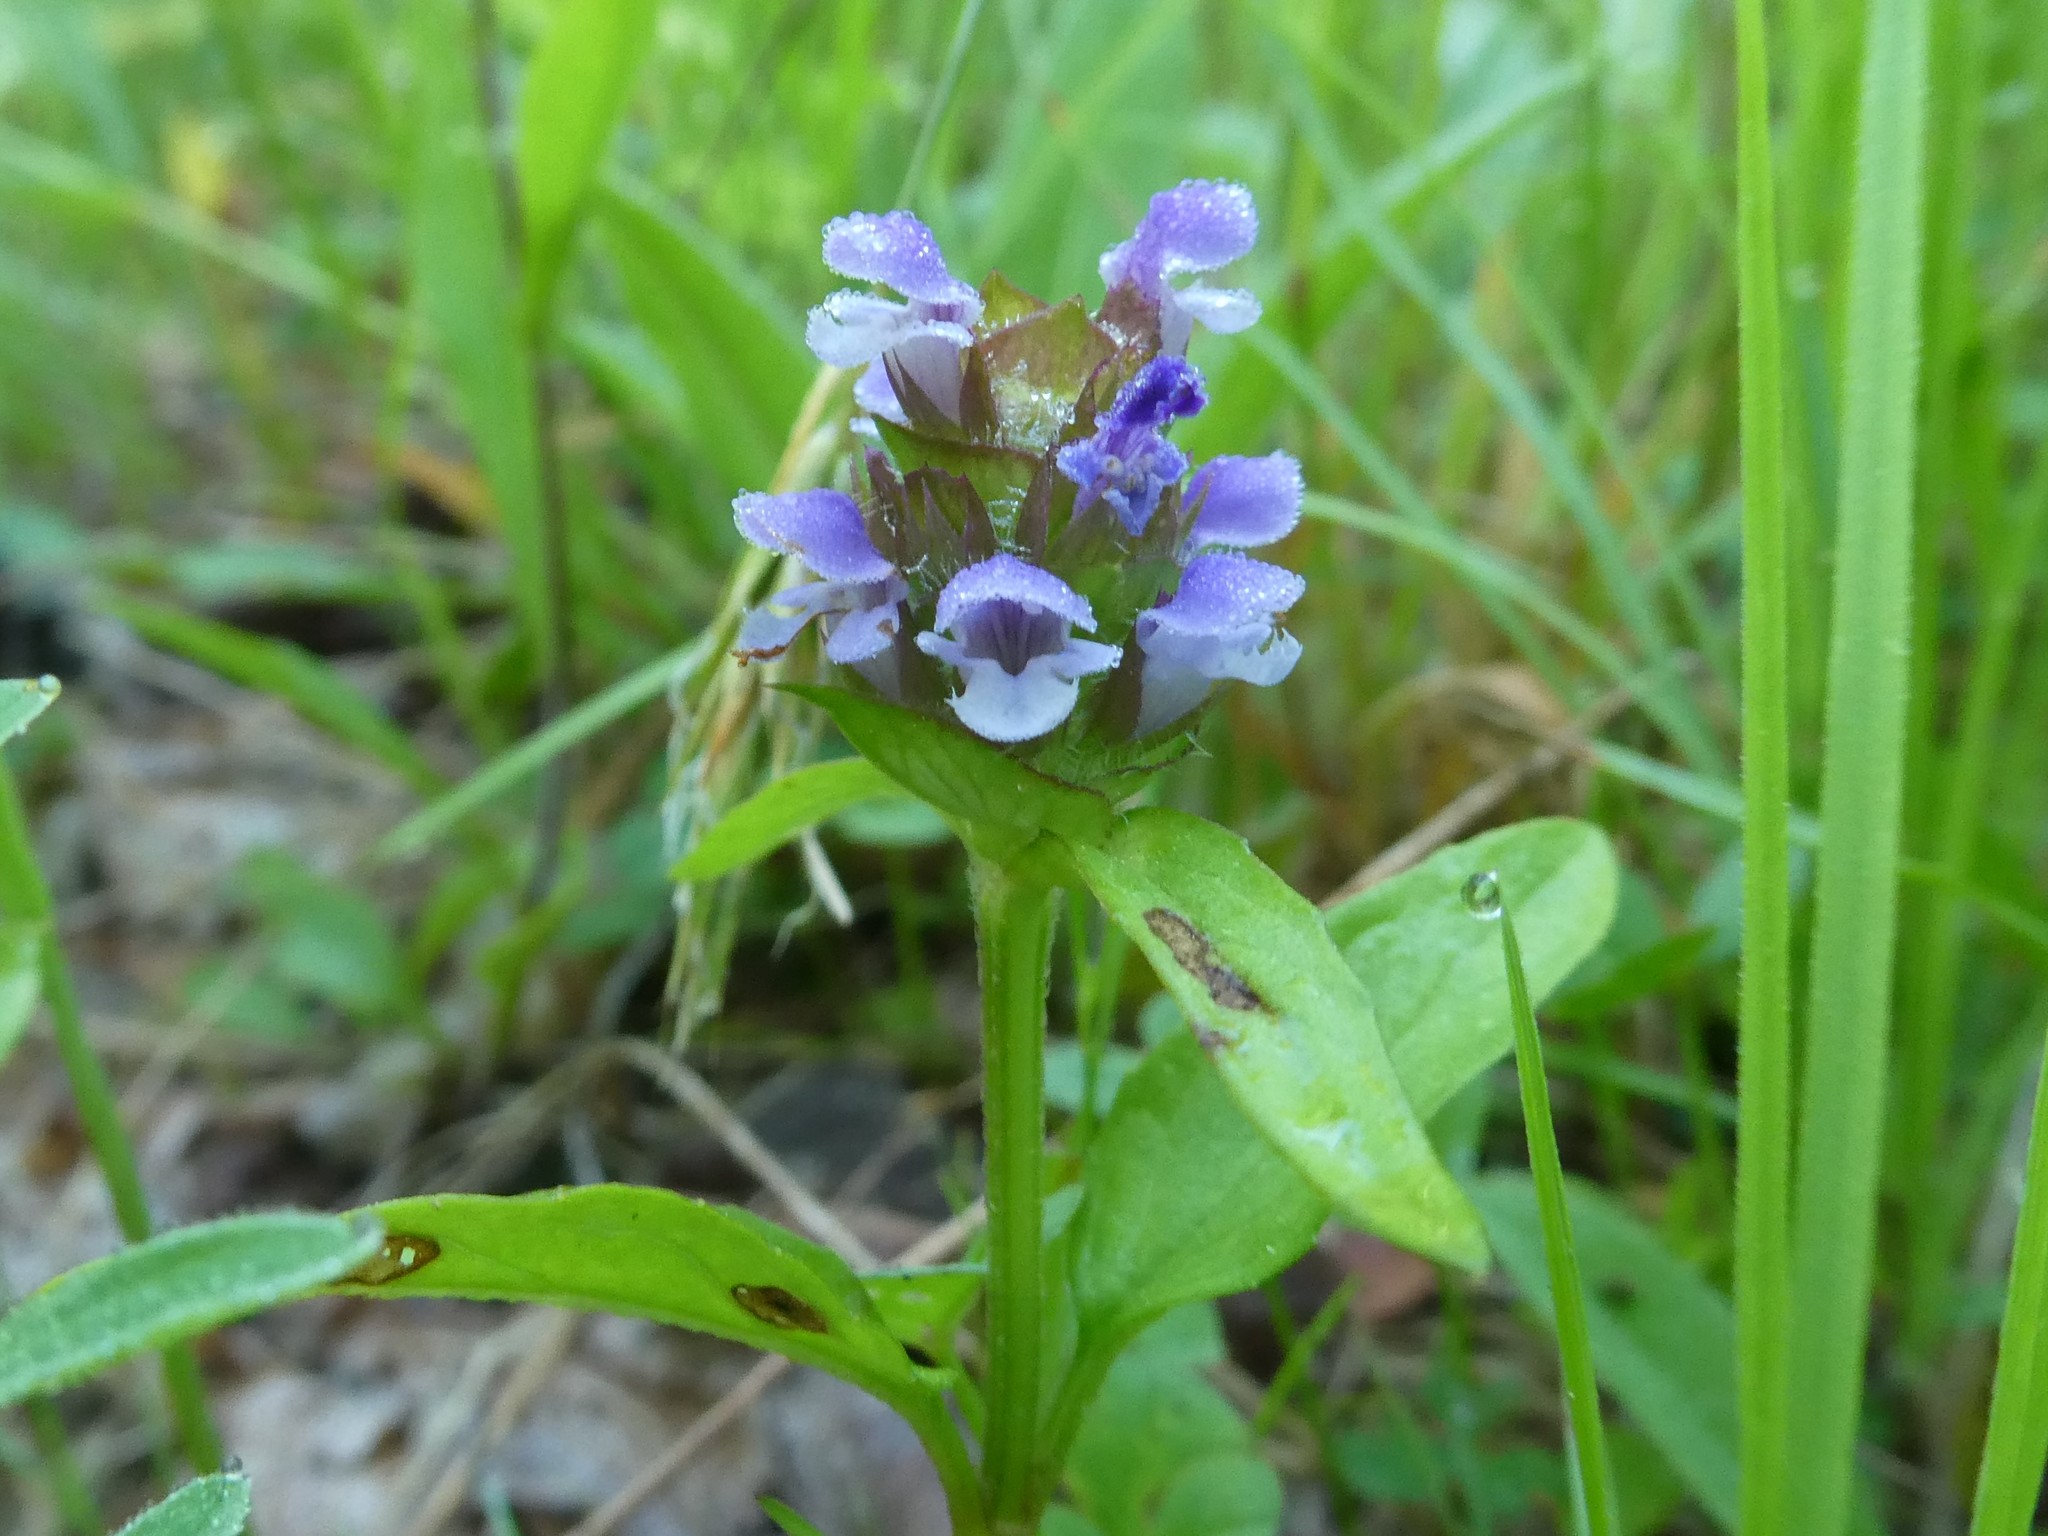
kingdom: Plantae
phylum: Tracheophyta
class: Magnoliopsida
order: Lamiales
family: Lamiaceae
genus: Prunella
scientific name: Prunella vulgaris
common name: Heal-all
